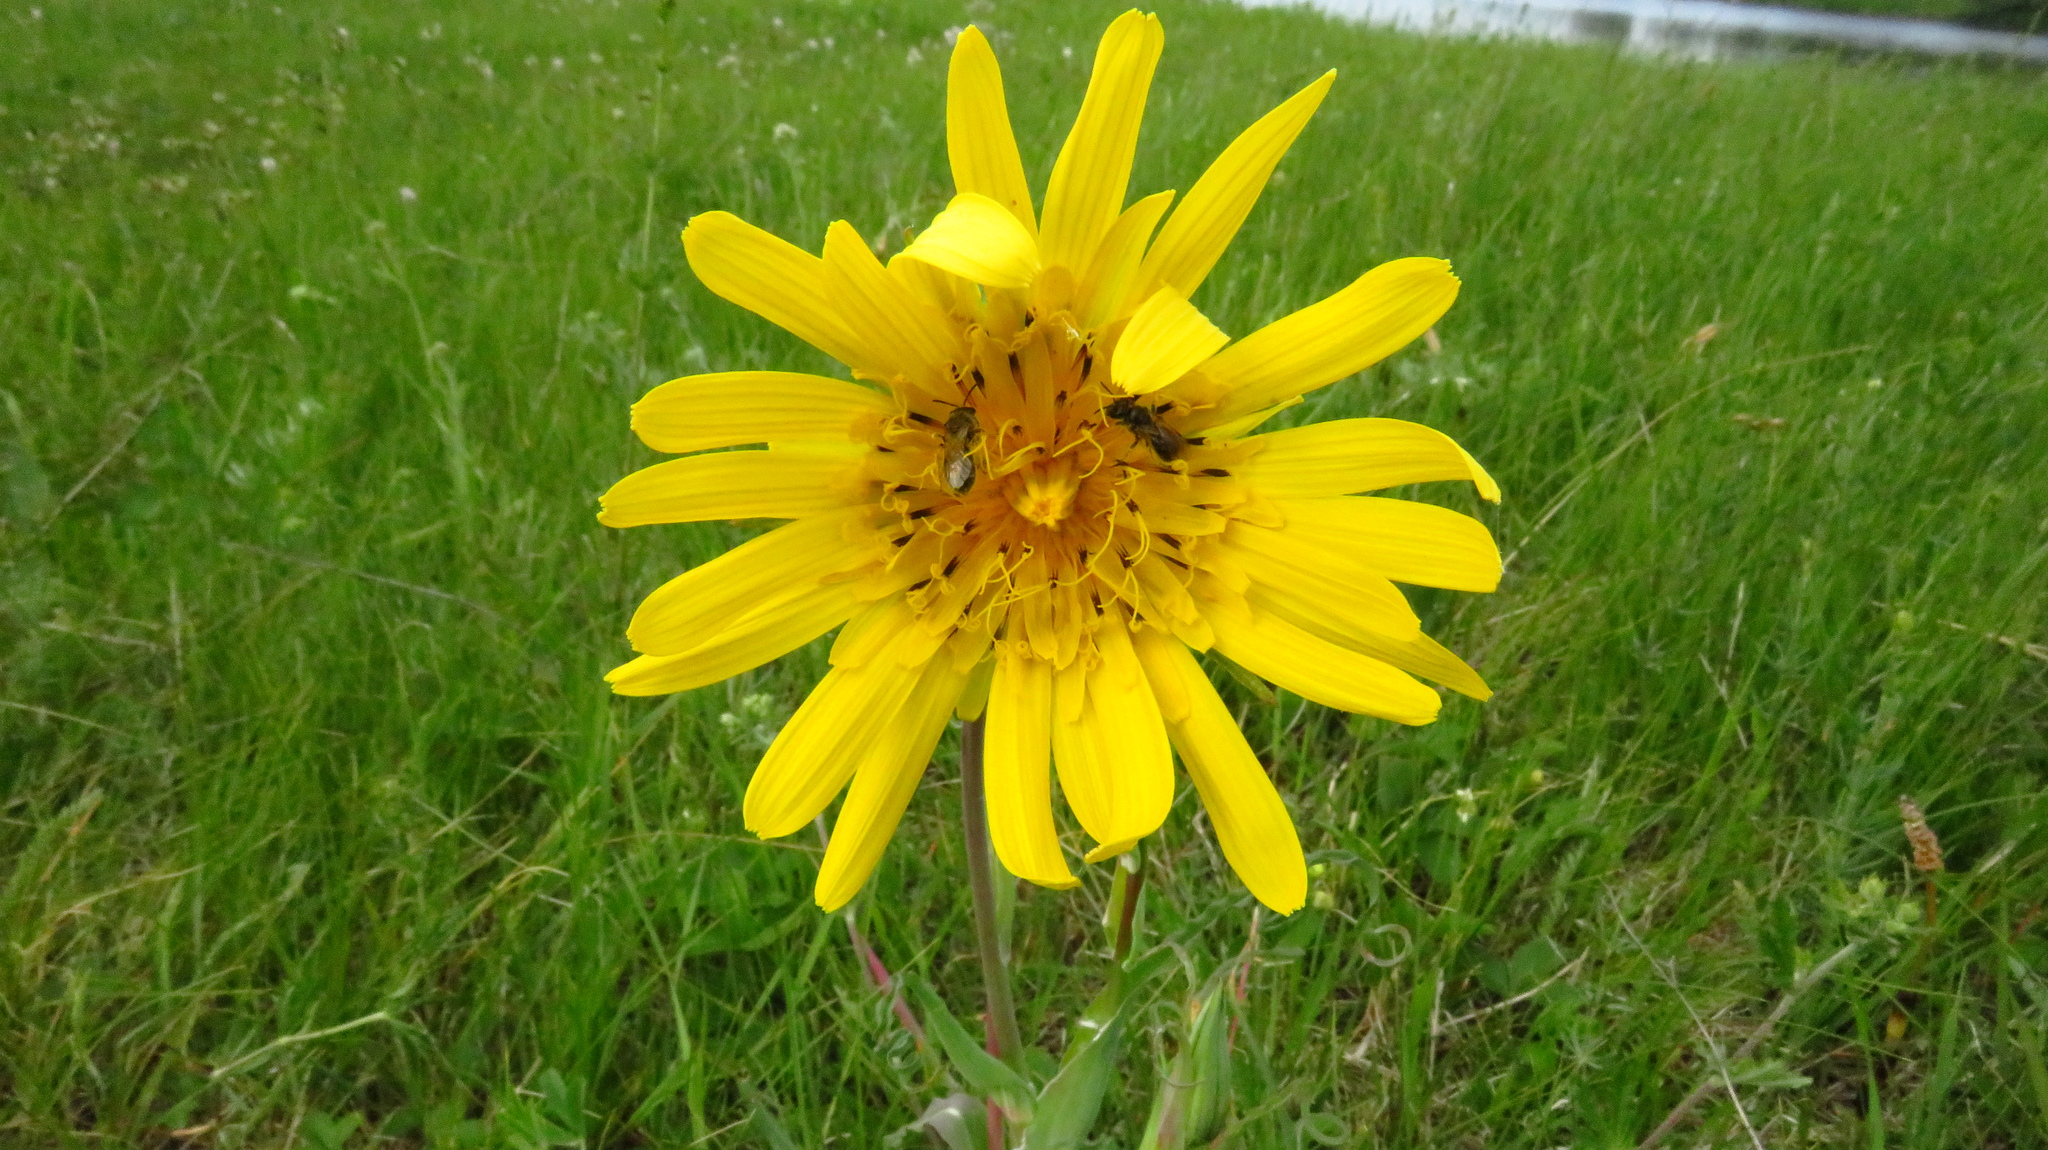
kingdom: Plantae
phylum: Tracheophyta
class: Magnoliopsida
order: Asterales
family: Asteraceae
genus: Tragopogon
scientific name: Tragopogon orientalis
